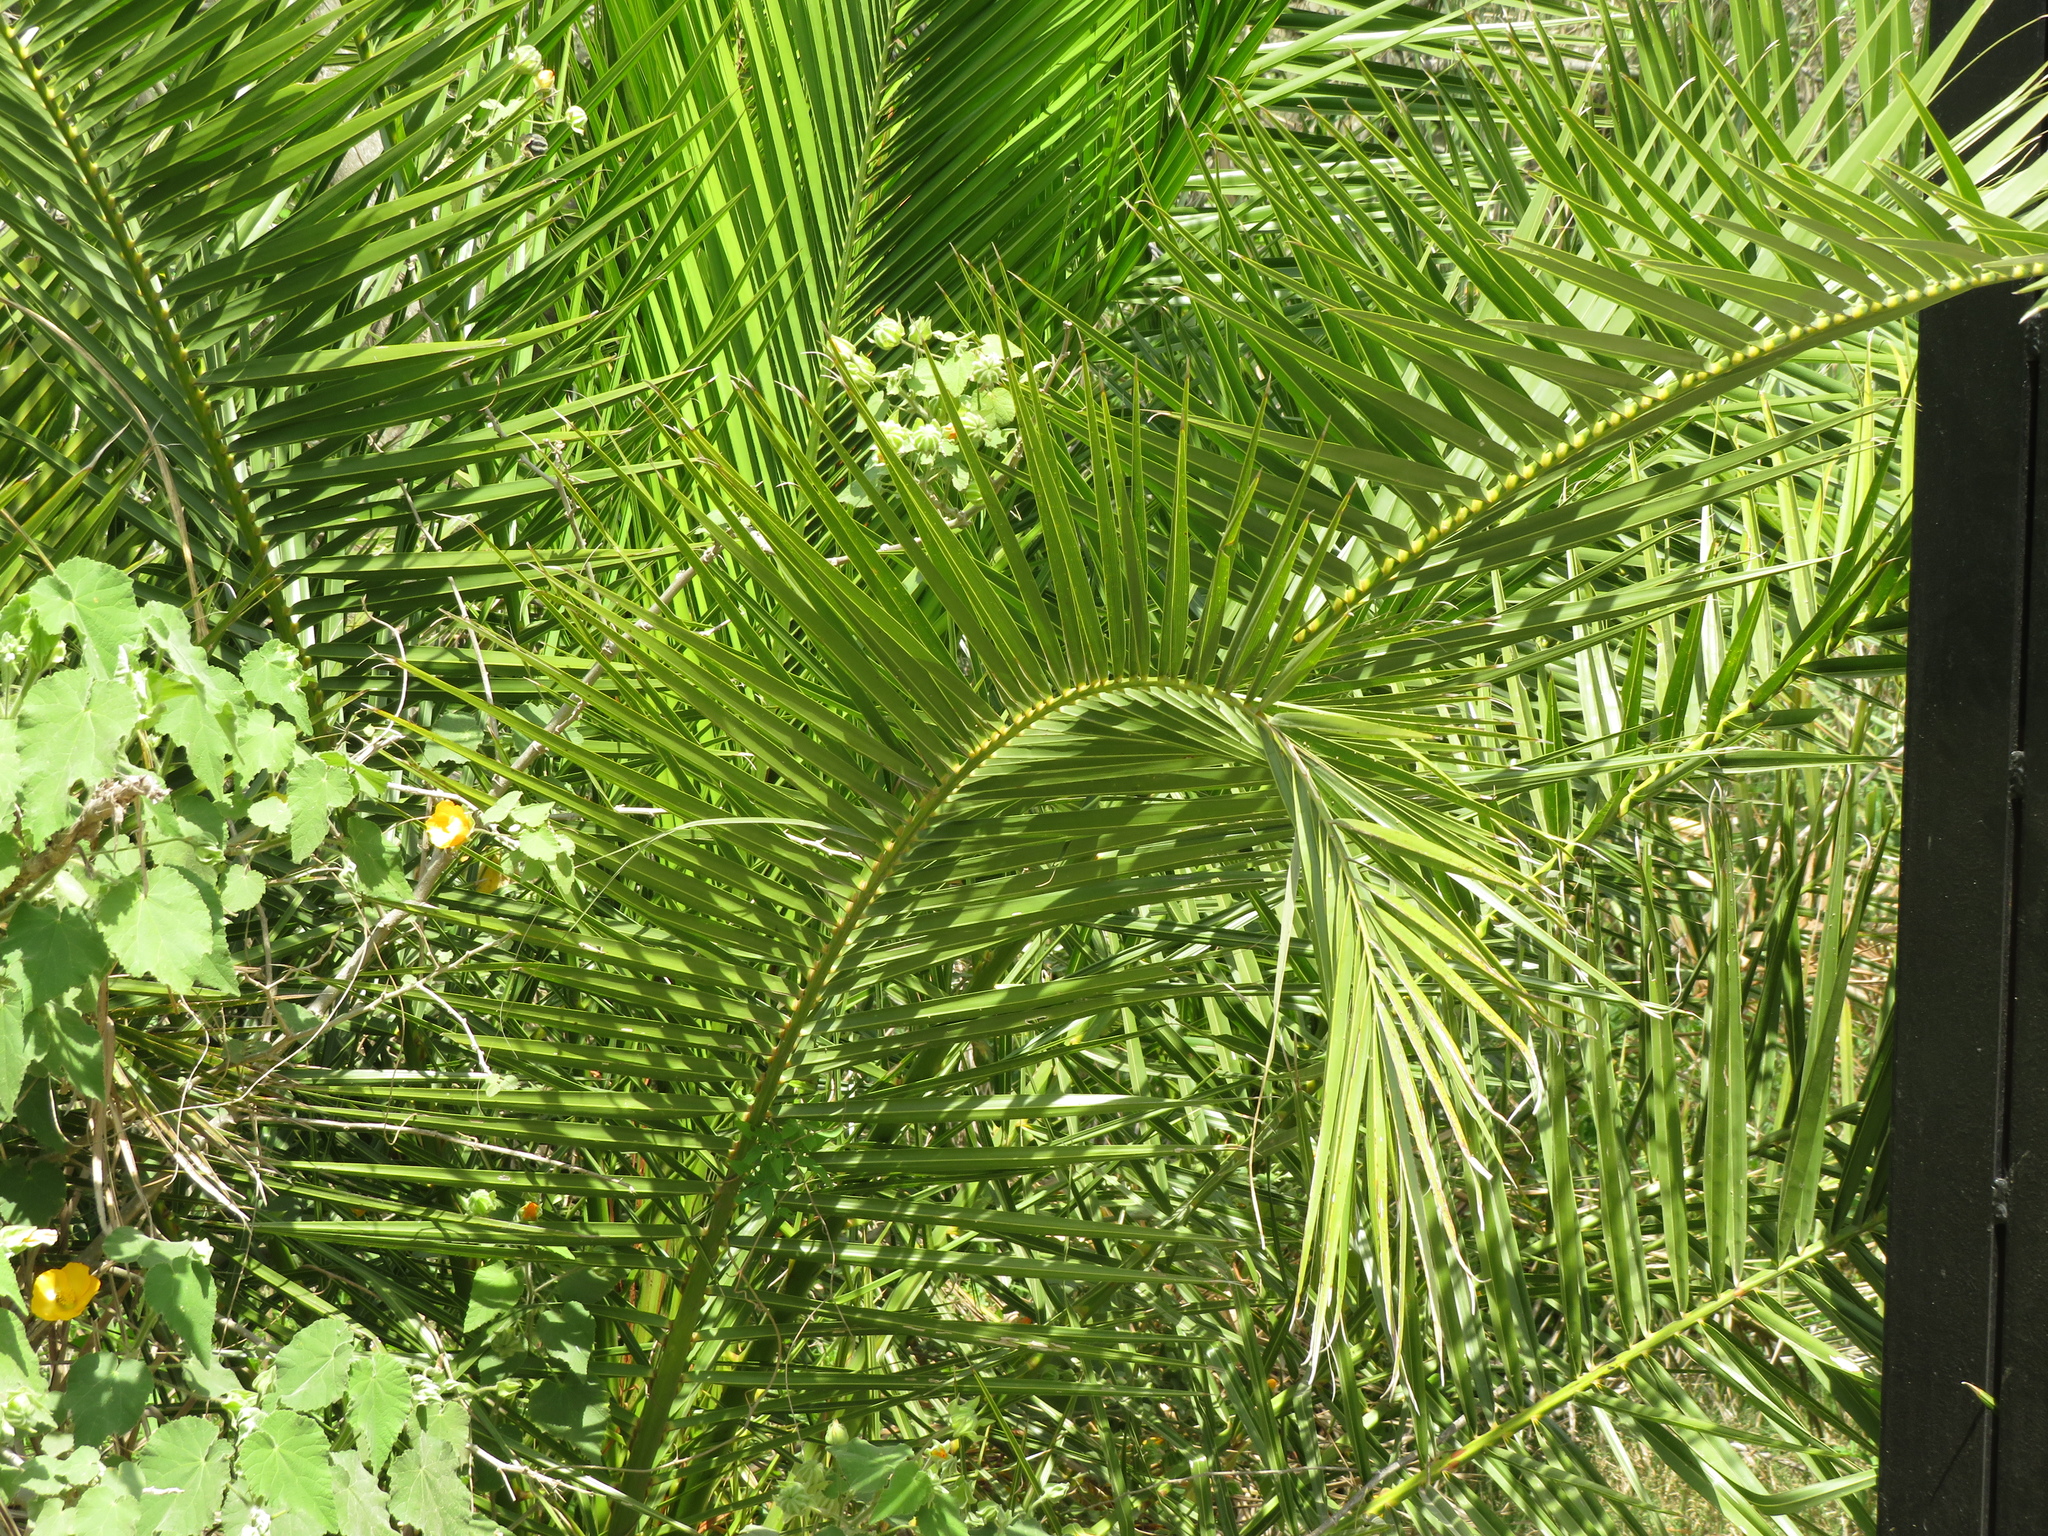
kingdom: Plantae
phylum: Tracheophyta
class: Liliopsida
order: Arecales
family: Arecaceae
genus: Phoenix
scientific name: Phoenix canariensis
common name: Canary island date palm
